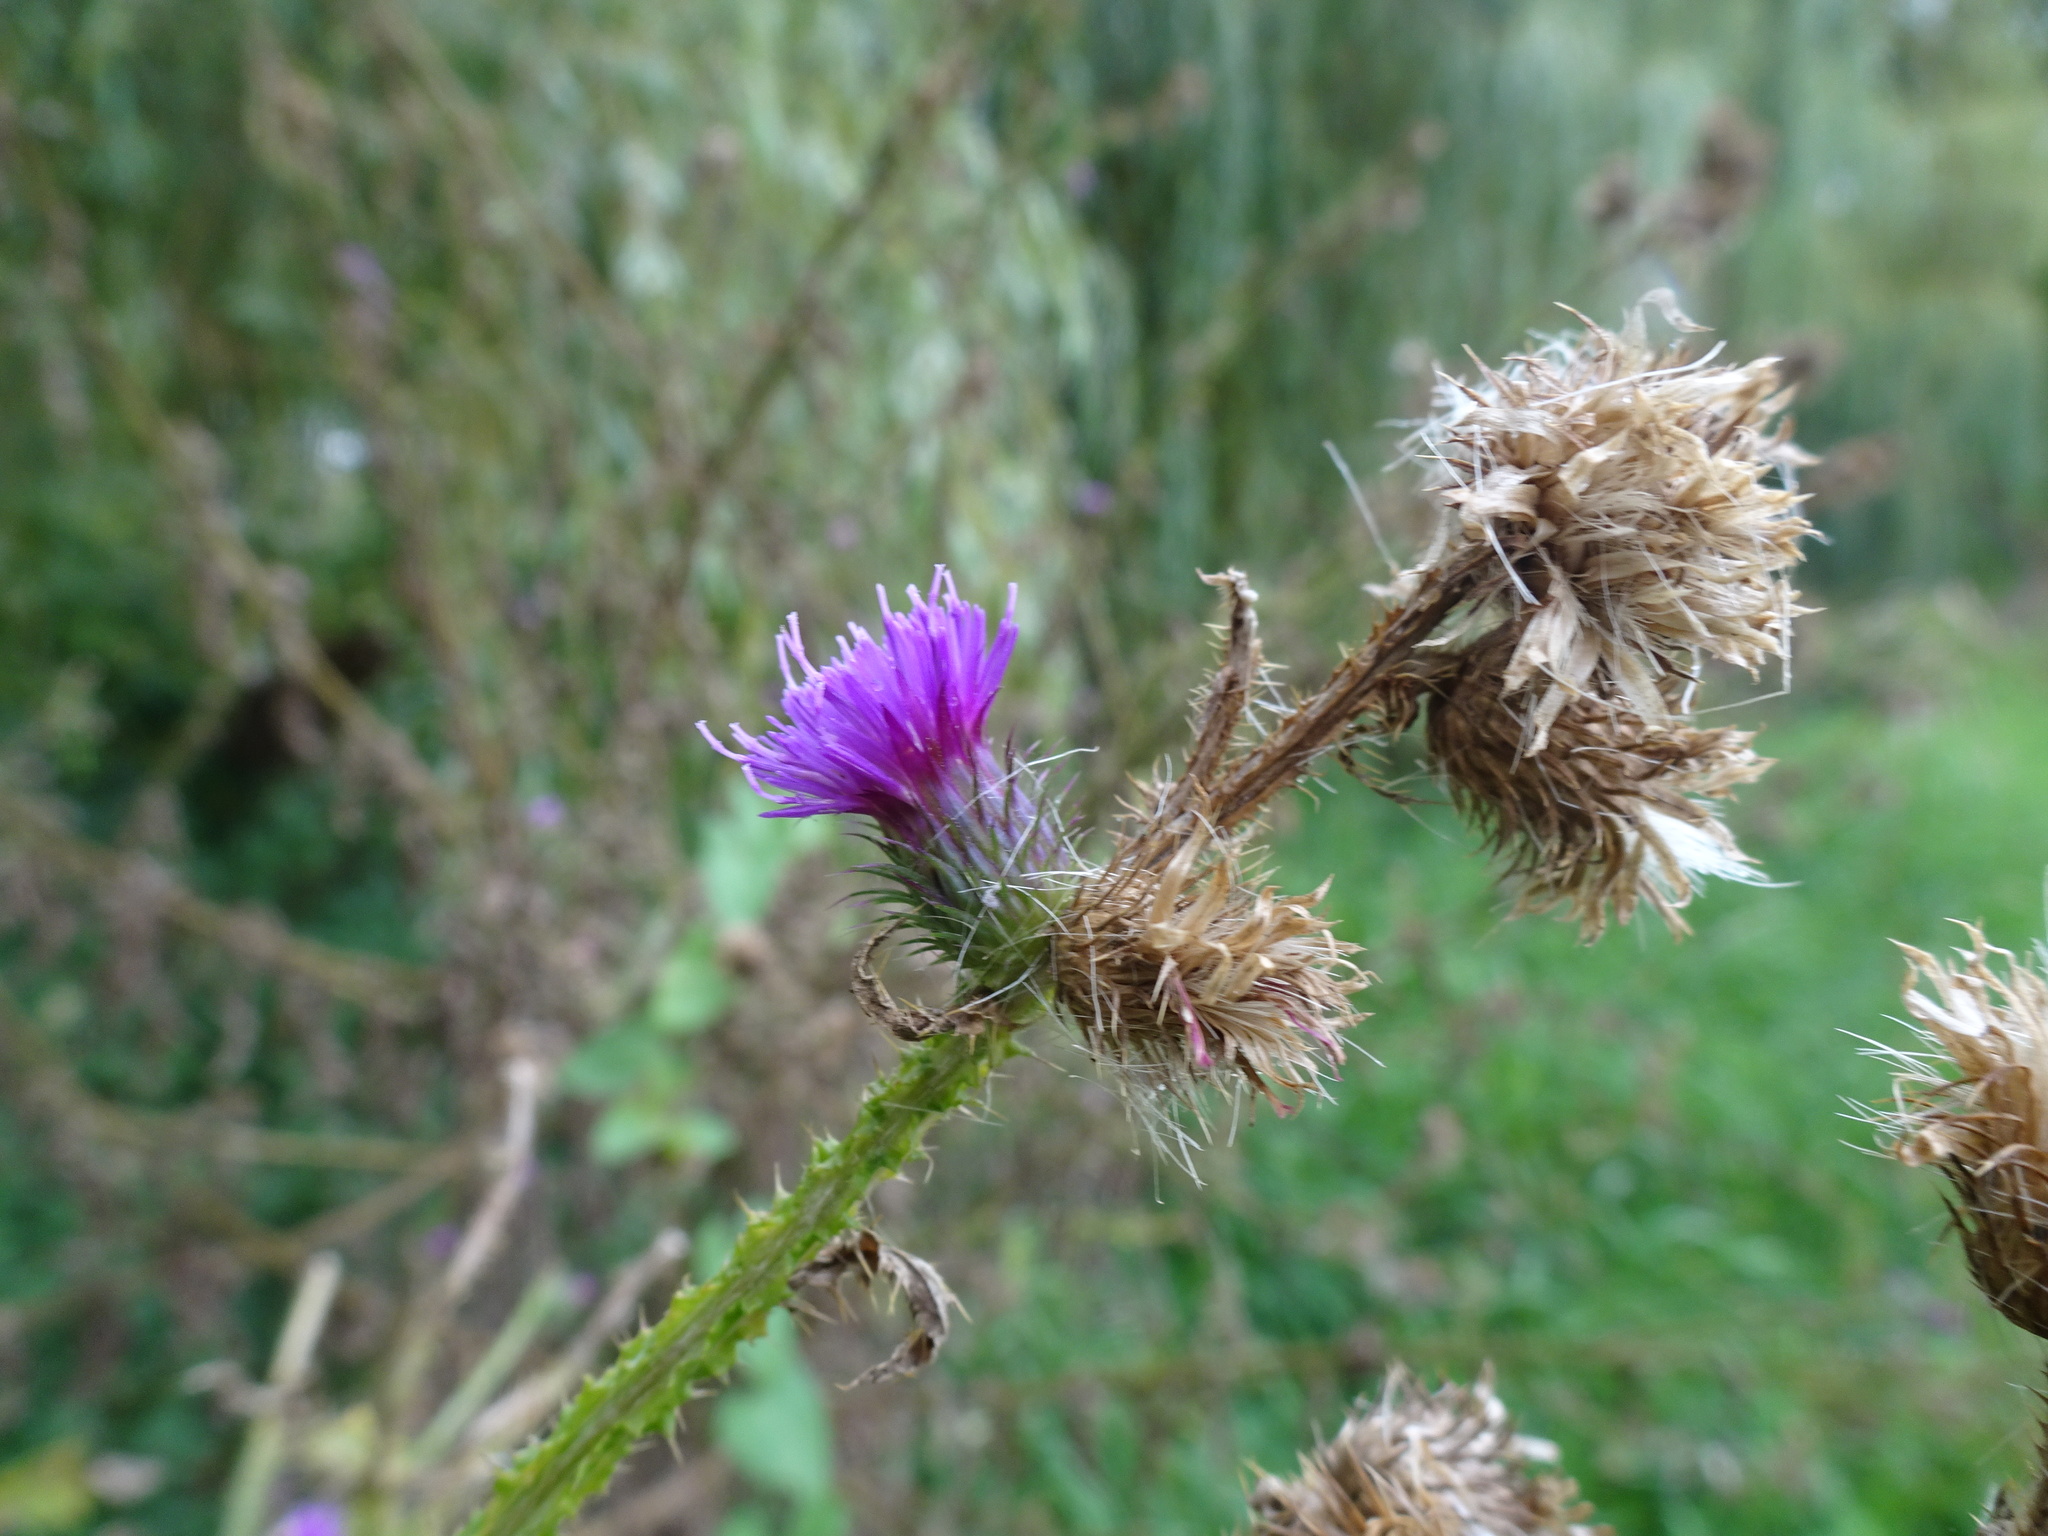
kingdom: Plantae
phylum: Tracheophyta
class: Magnoliopsida
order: Asterales
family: Asteraceae
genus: Carduus
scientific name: Carduus crispus
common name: Welted thistle
